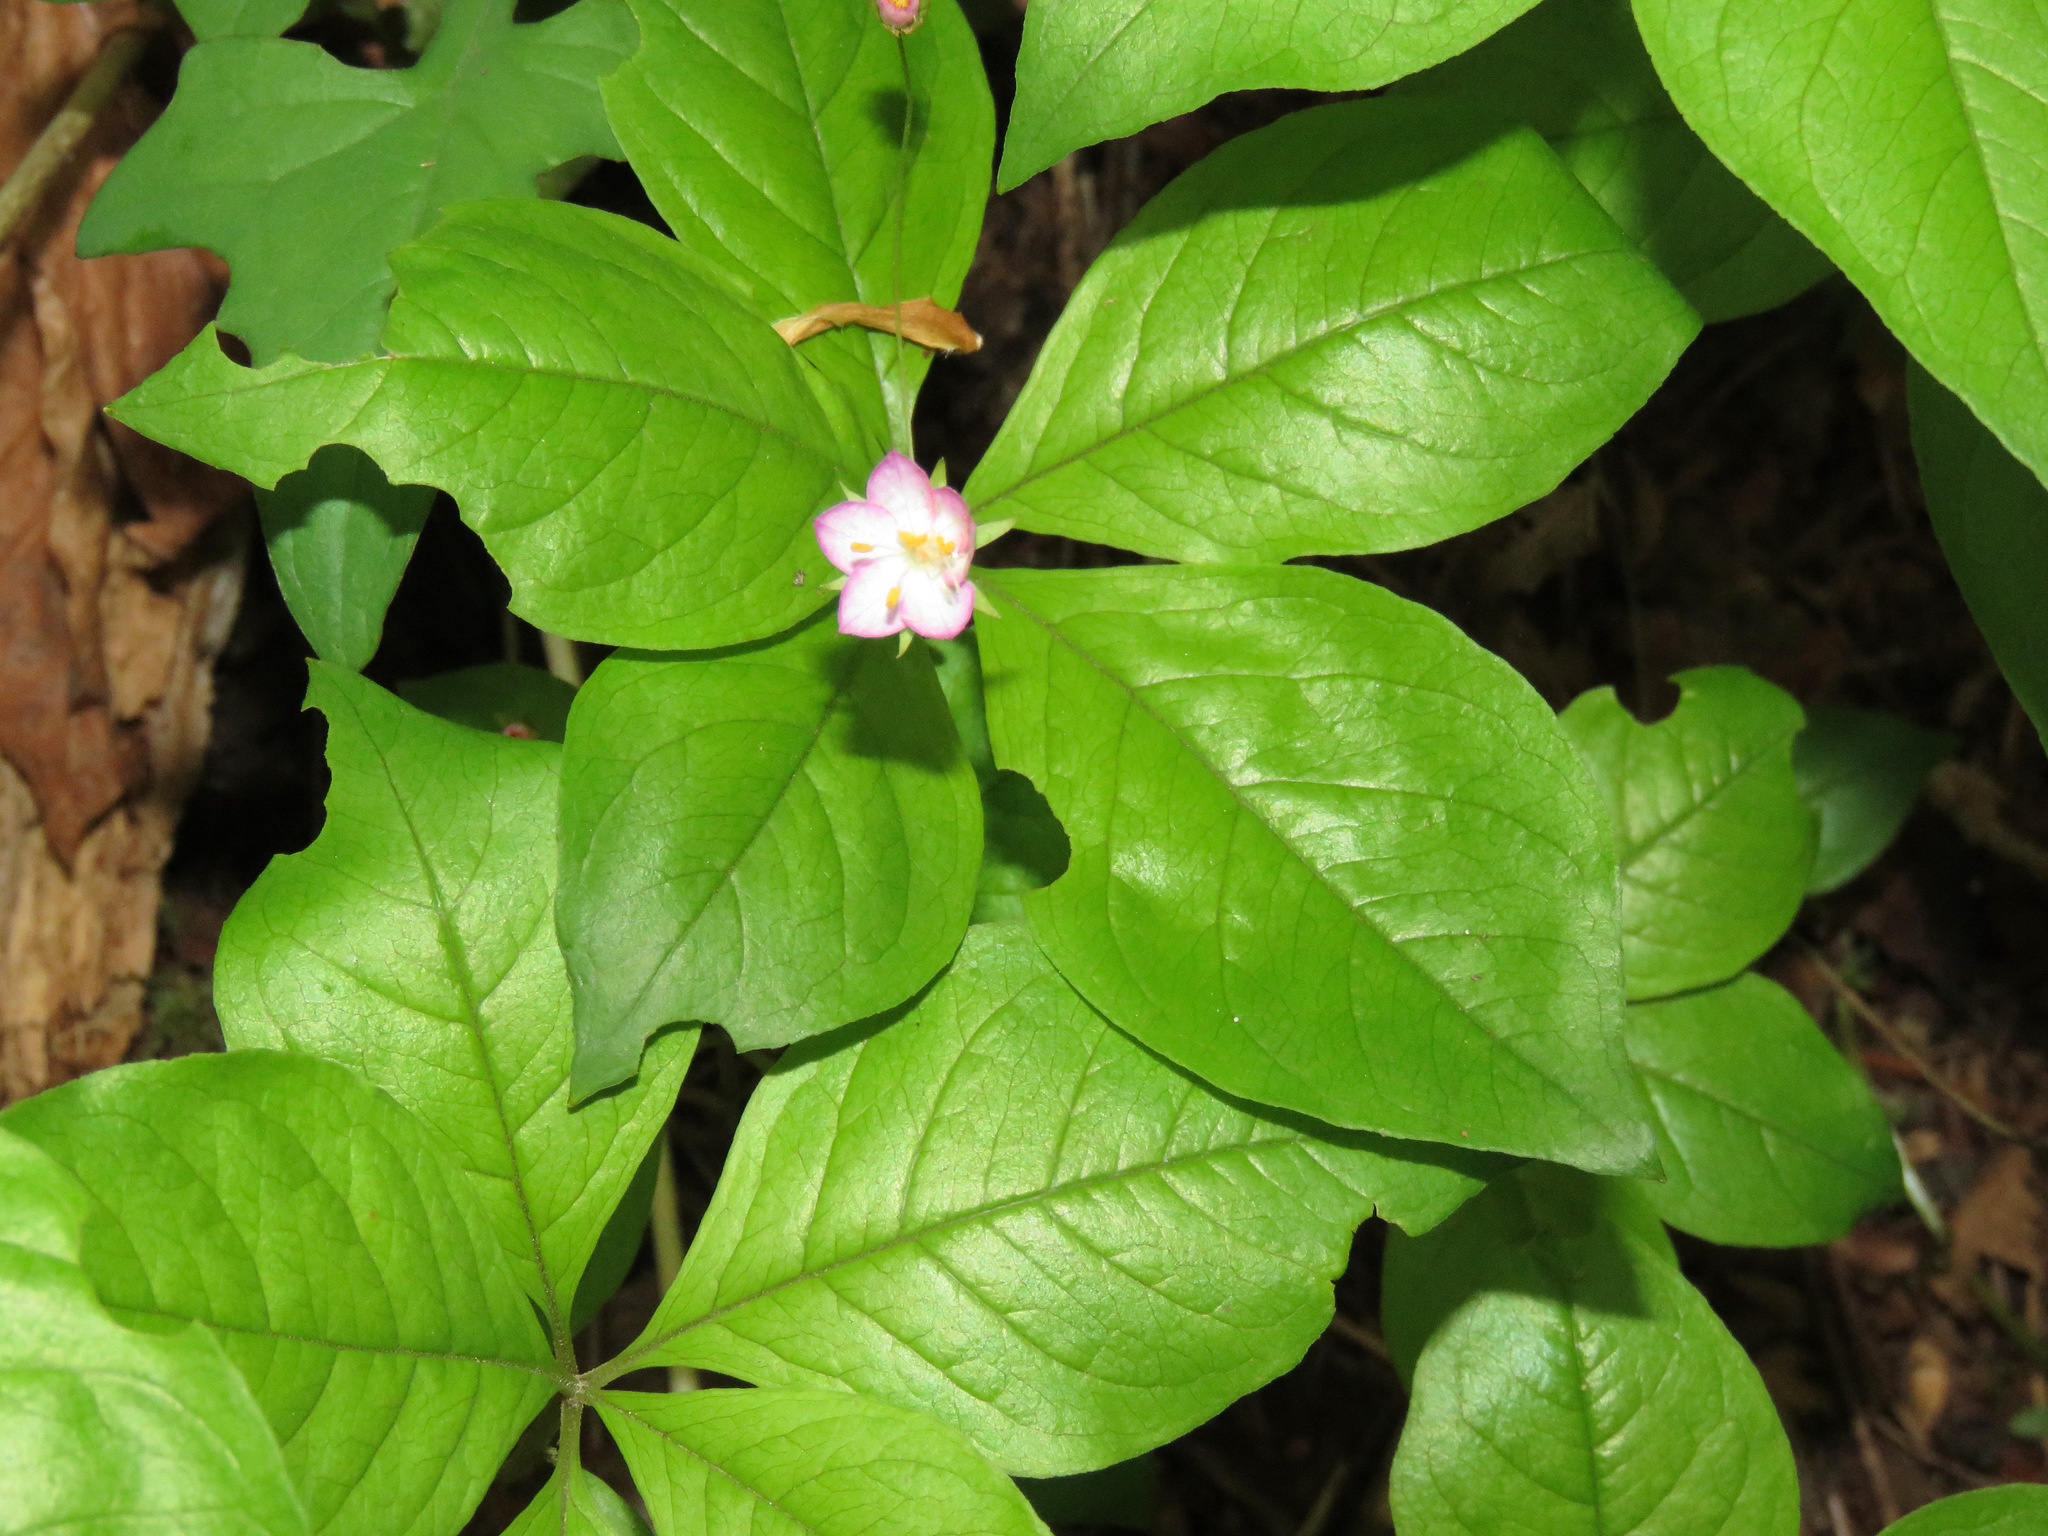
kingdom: Plantae
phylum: Tracheophyta
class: Magnoliopsida
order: Ericales
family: Primulaceae
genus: Lysimachia
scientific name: Lysimachia latifolia
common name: Pacific starflower
